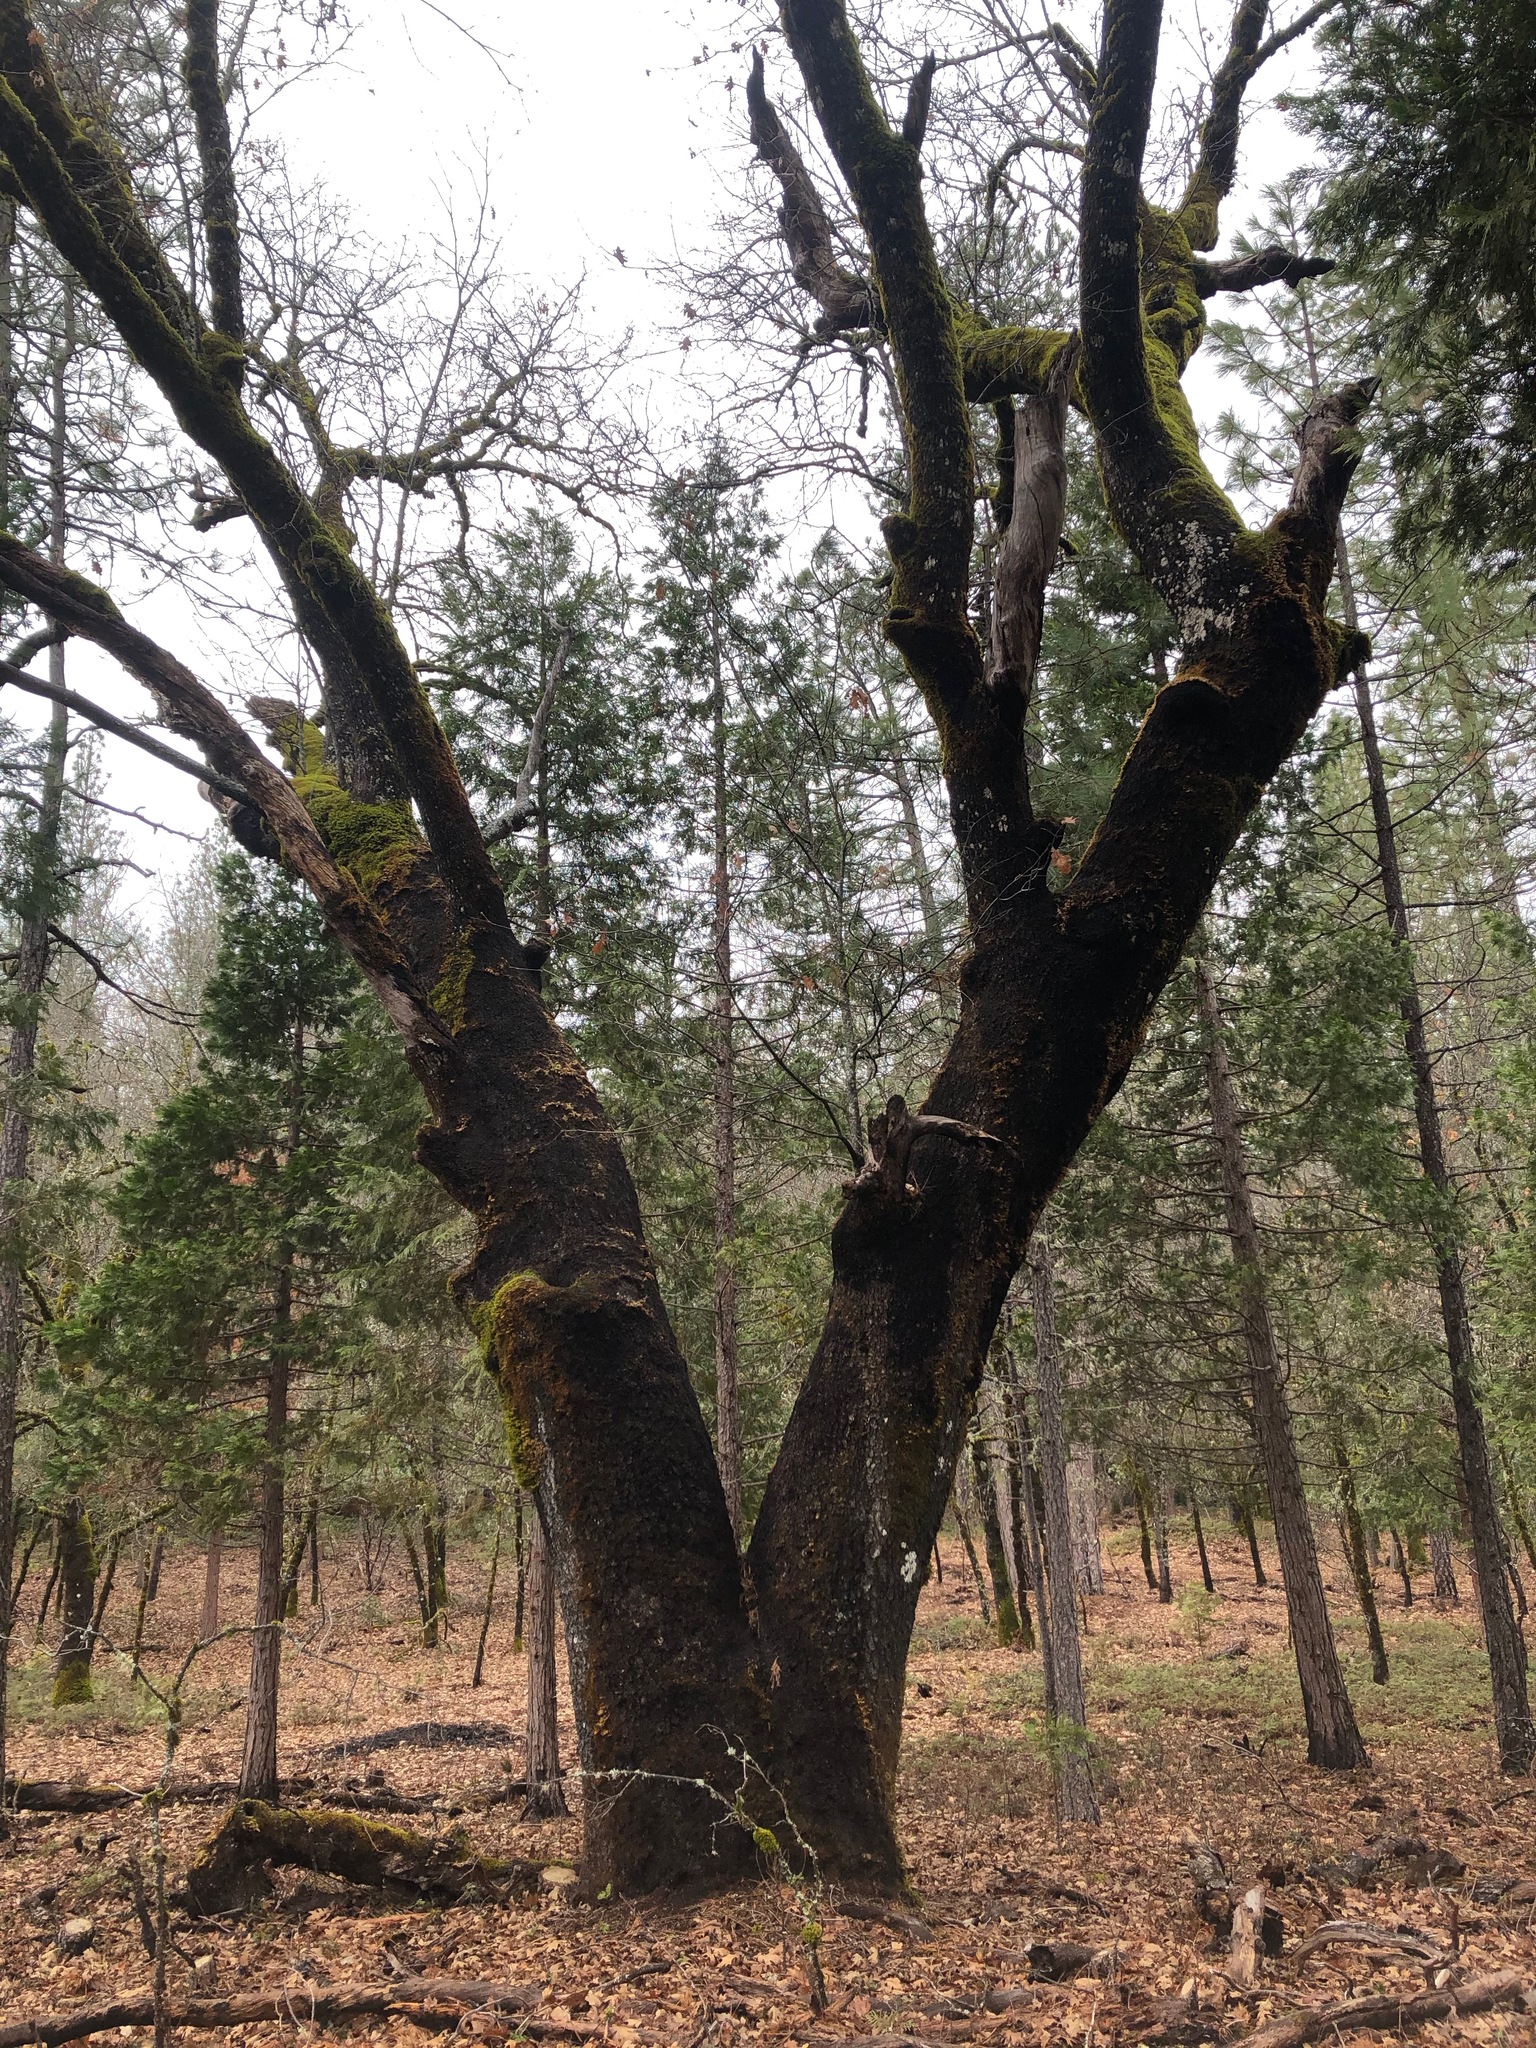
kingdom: Plantae
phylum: Tracheophyta
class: Magnoliopsida
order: Fagales
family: Fagaceae
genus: Quercus
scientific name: Quercus kelloggii
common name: California black oak
